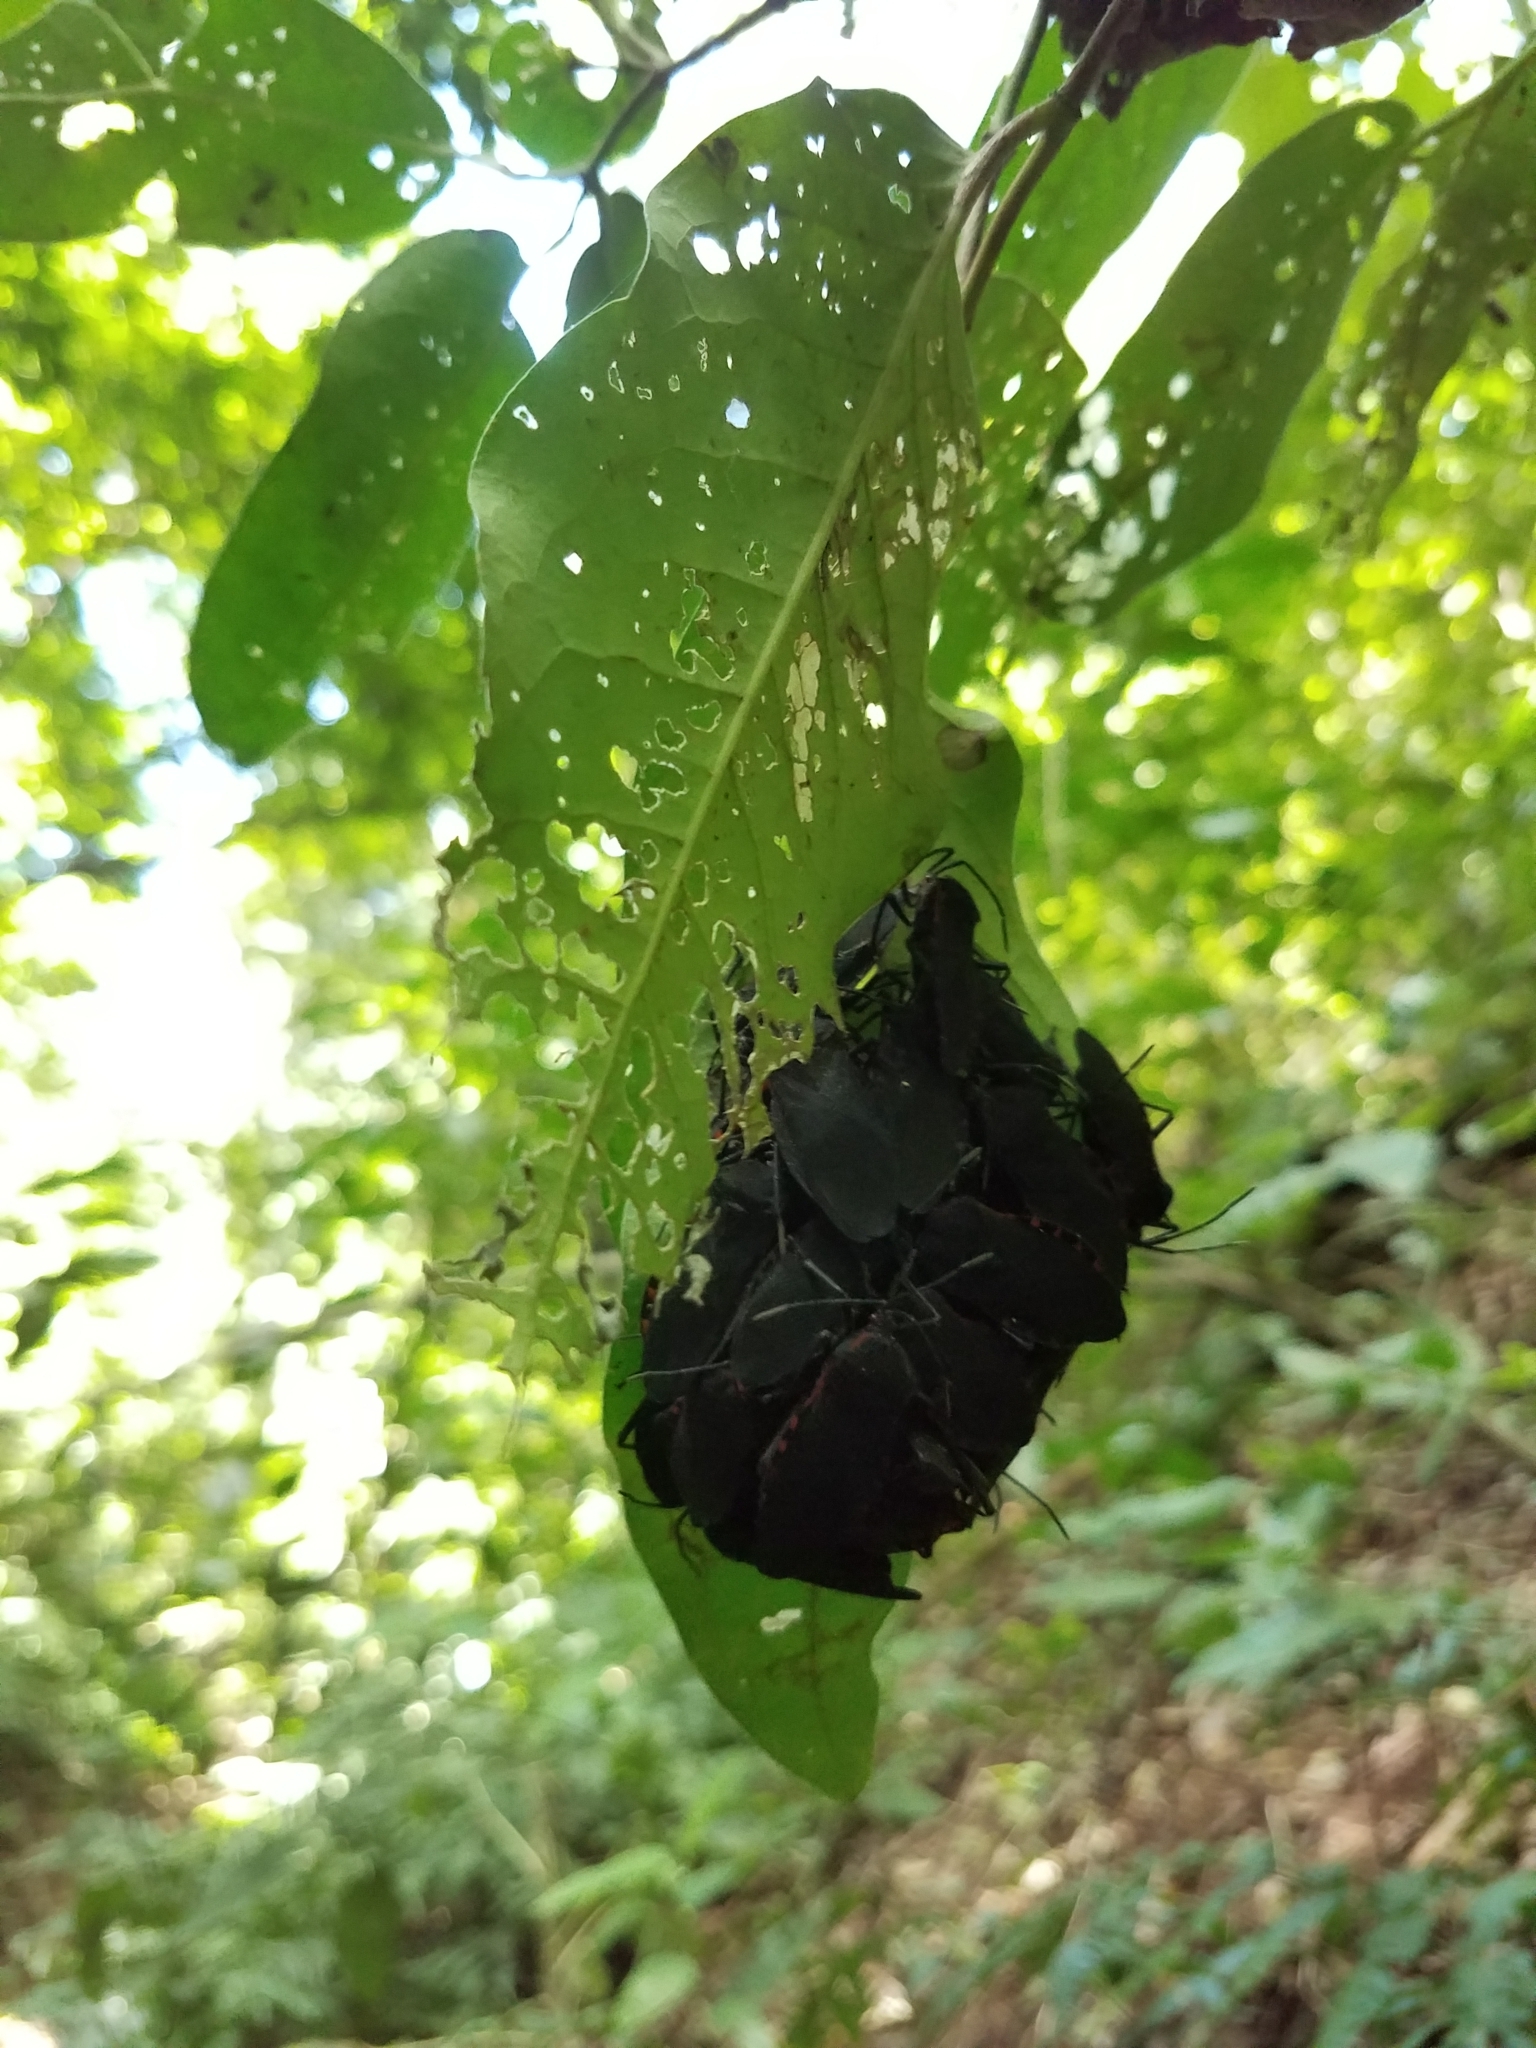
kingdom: Animalia
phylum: Arthropoda
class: Insecta
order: Hemiptera
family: Coreidae
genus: Sephina
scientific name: Sephina subulata
